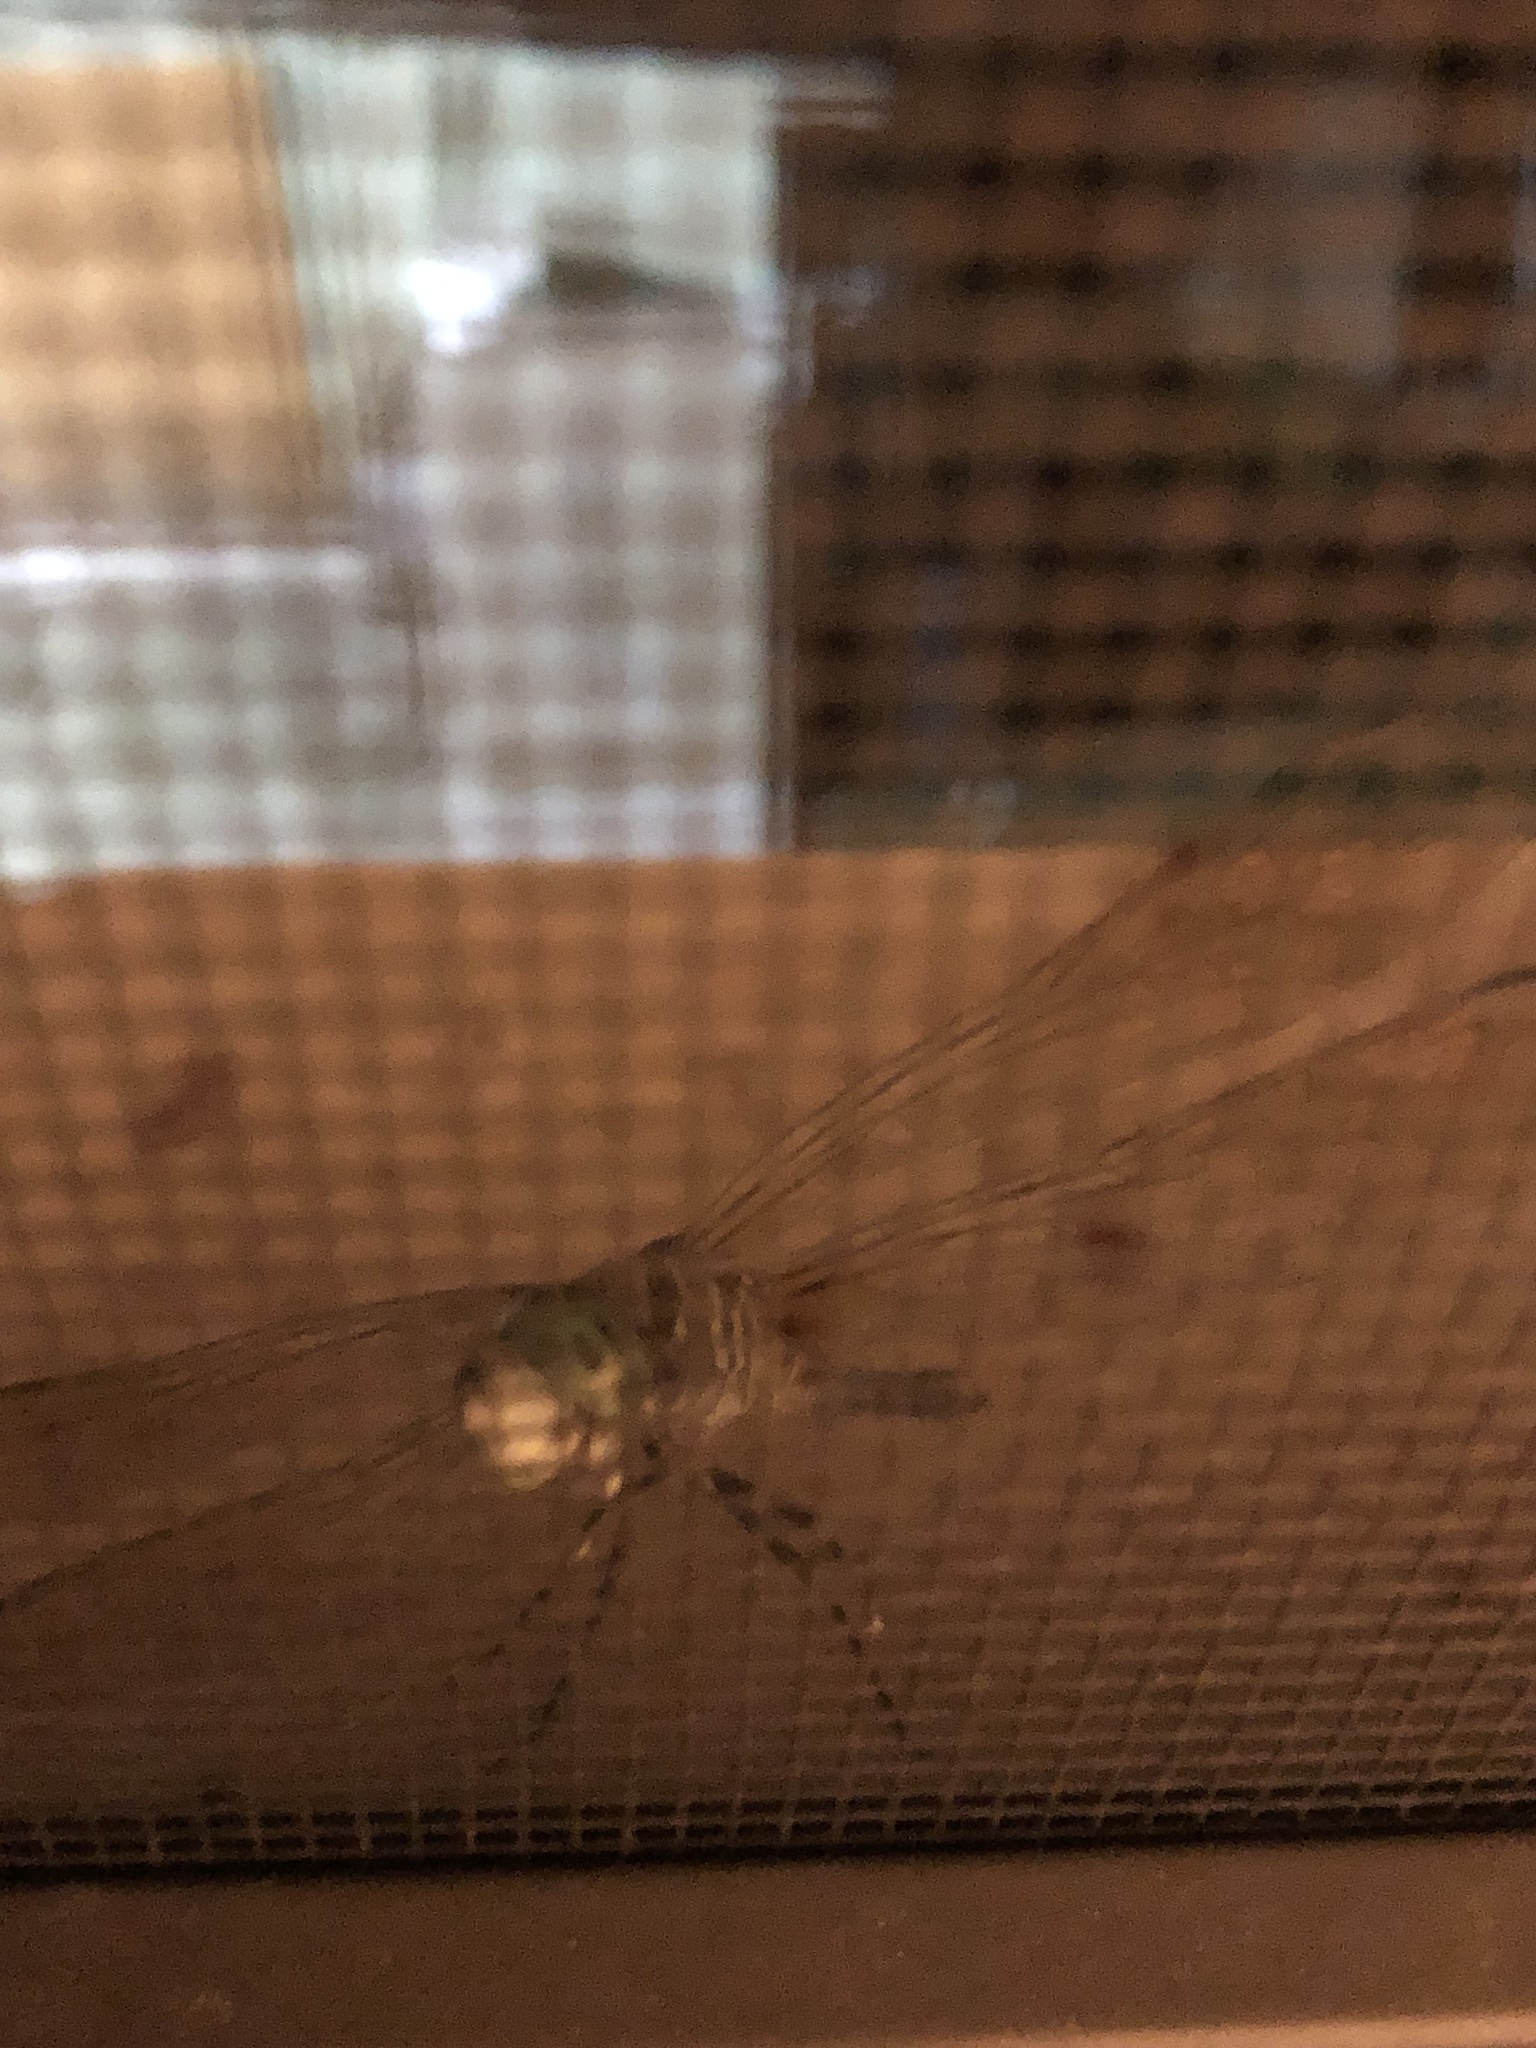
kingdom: Animalia
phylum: Arthropoda
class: Insecta
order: Odonata
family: Libellulidae
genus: Pachydiplax
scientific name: Pachydiplax longipennis
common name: Blue dasher
